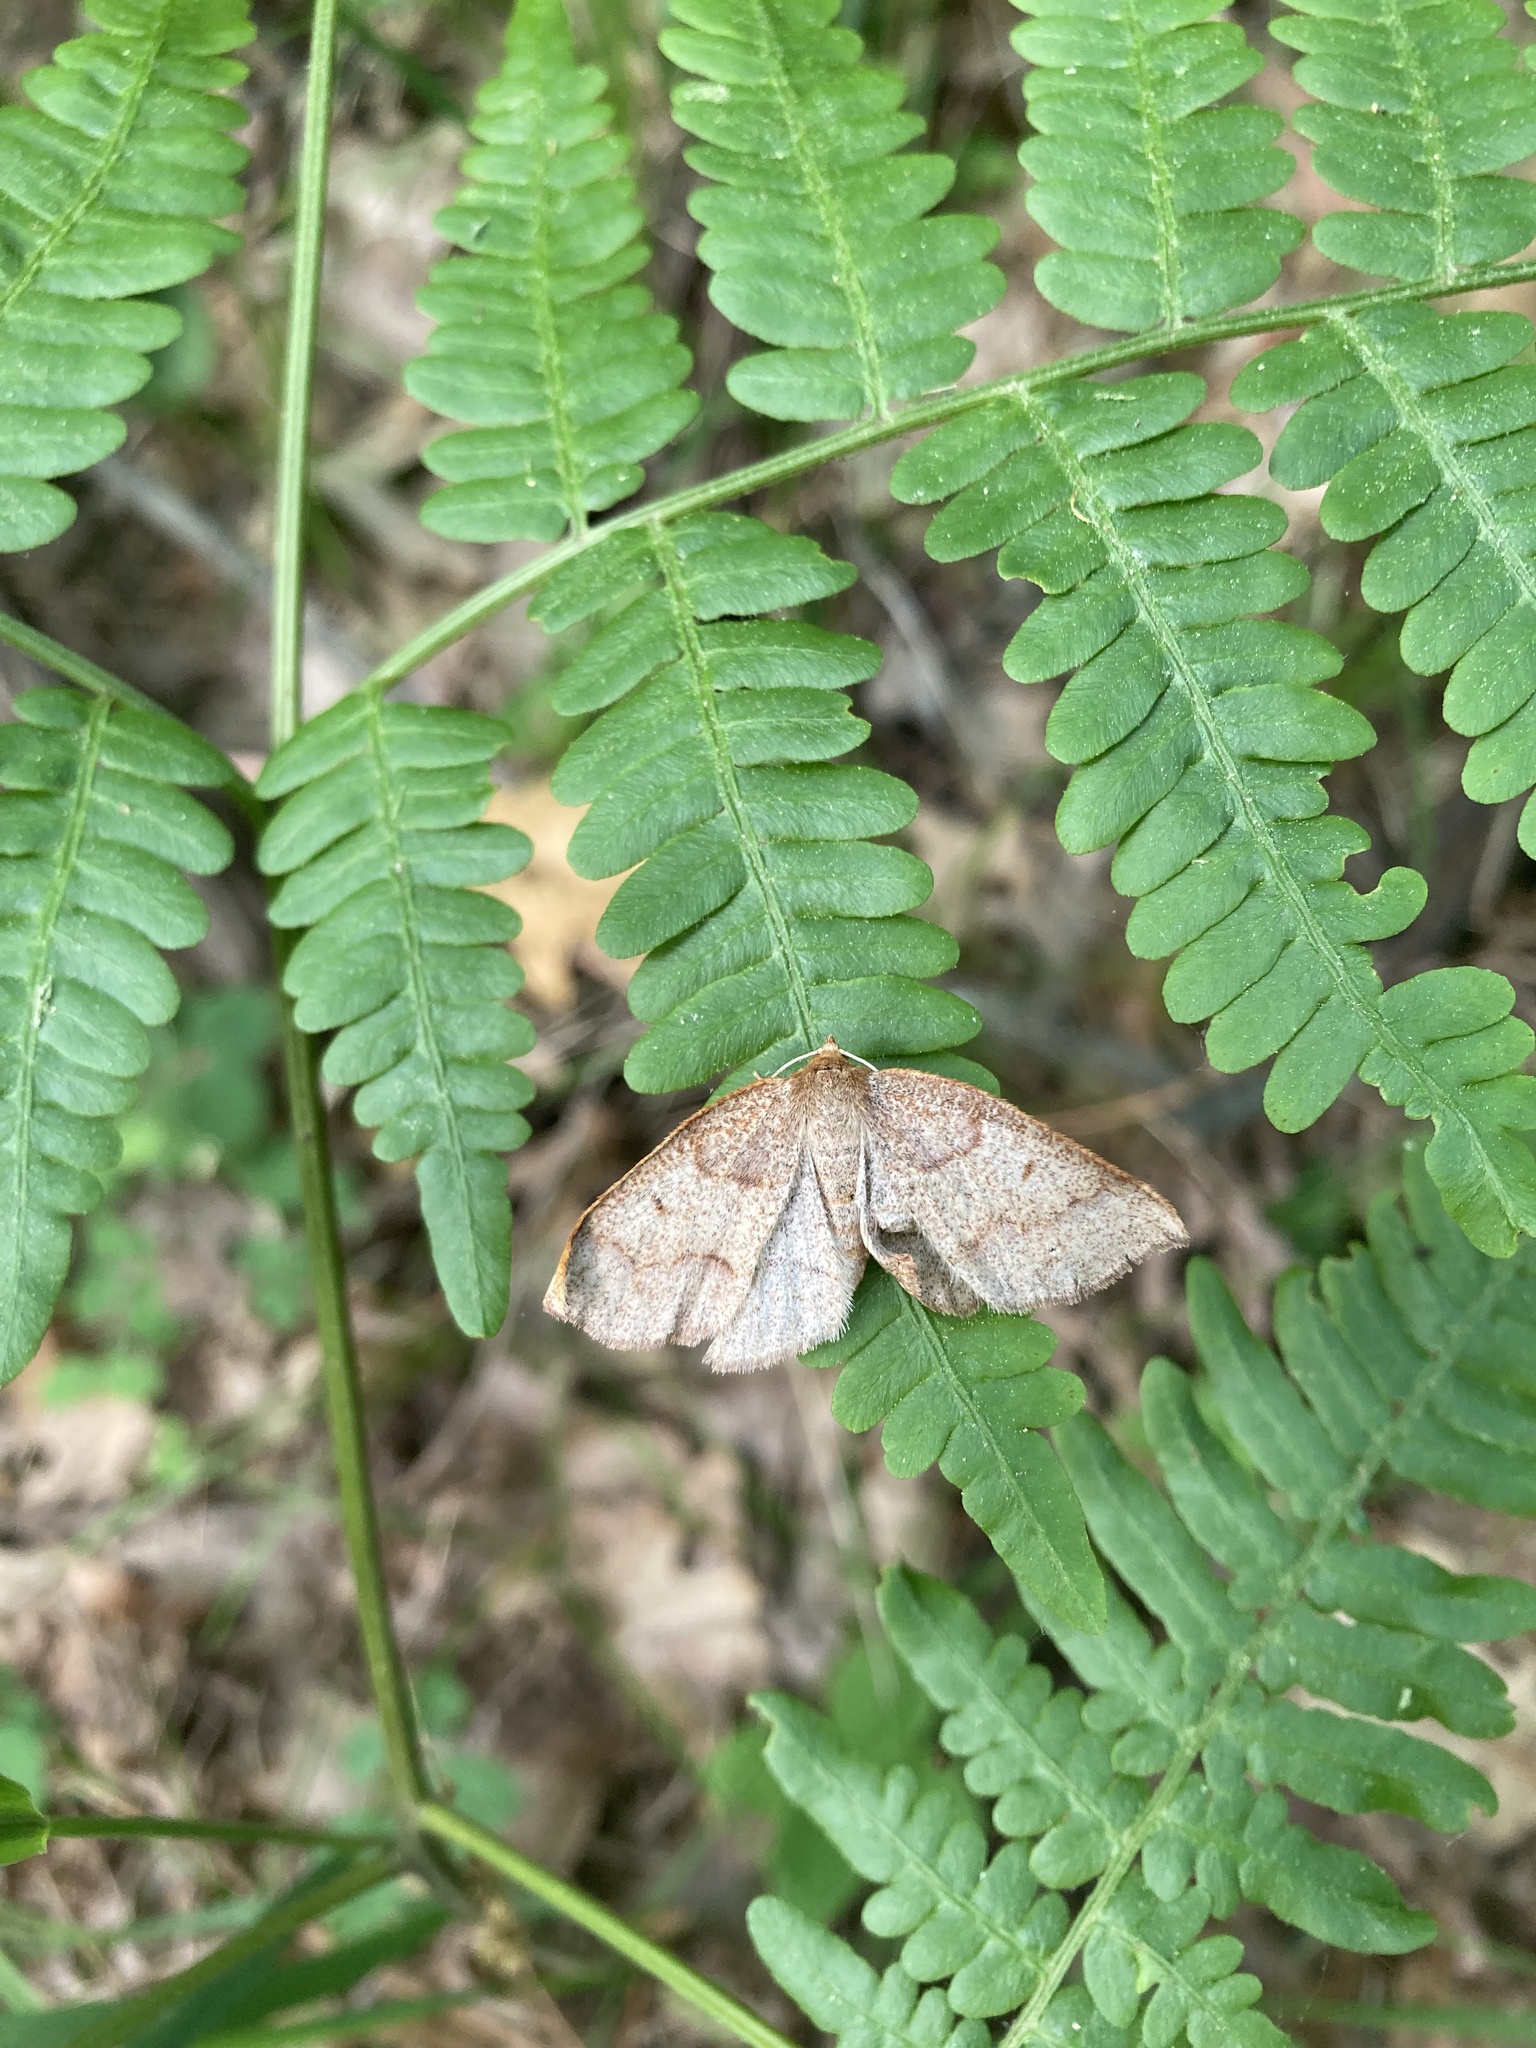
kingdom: Animalia
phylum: Arthropoda
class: Insecta
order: Lepidoptera
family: Geometridae
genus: Metarranthis
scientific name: Metarranthis amyrisaria
